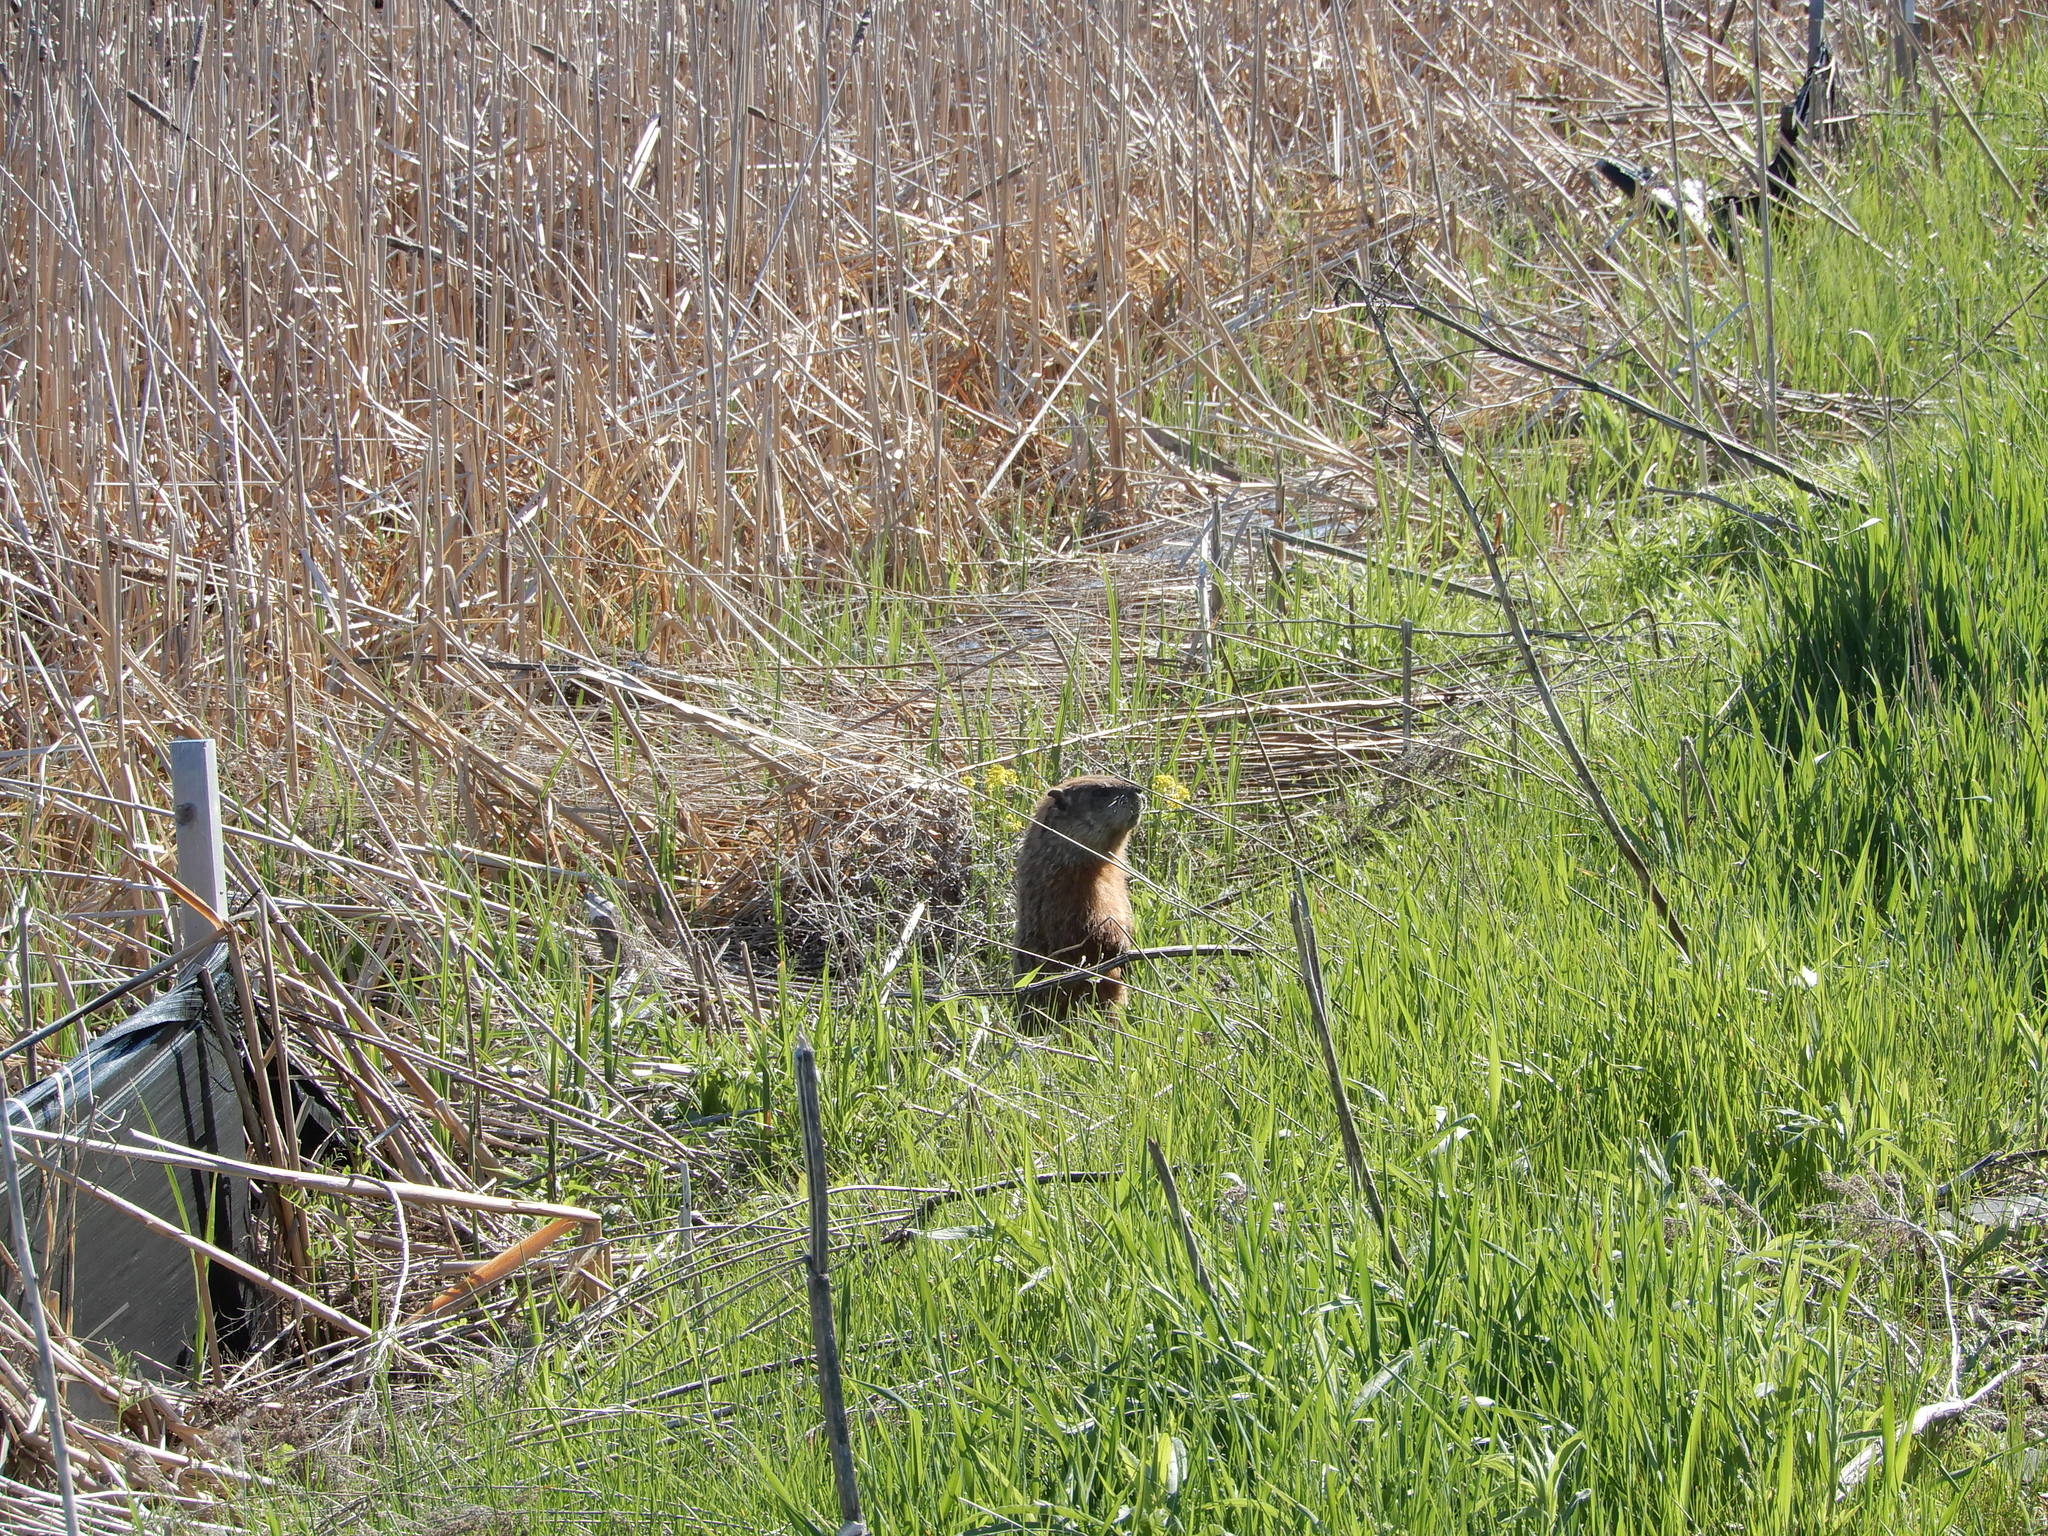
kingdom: Animalia
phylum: Chordata
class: Mammalia
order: Rodentia
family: Sciuridae
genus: Marmota
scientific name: Marmota monax
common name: Groundhog
